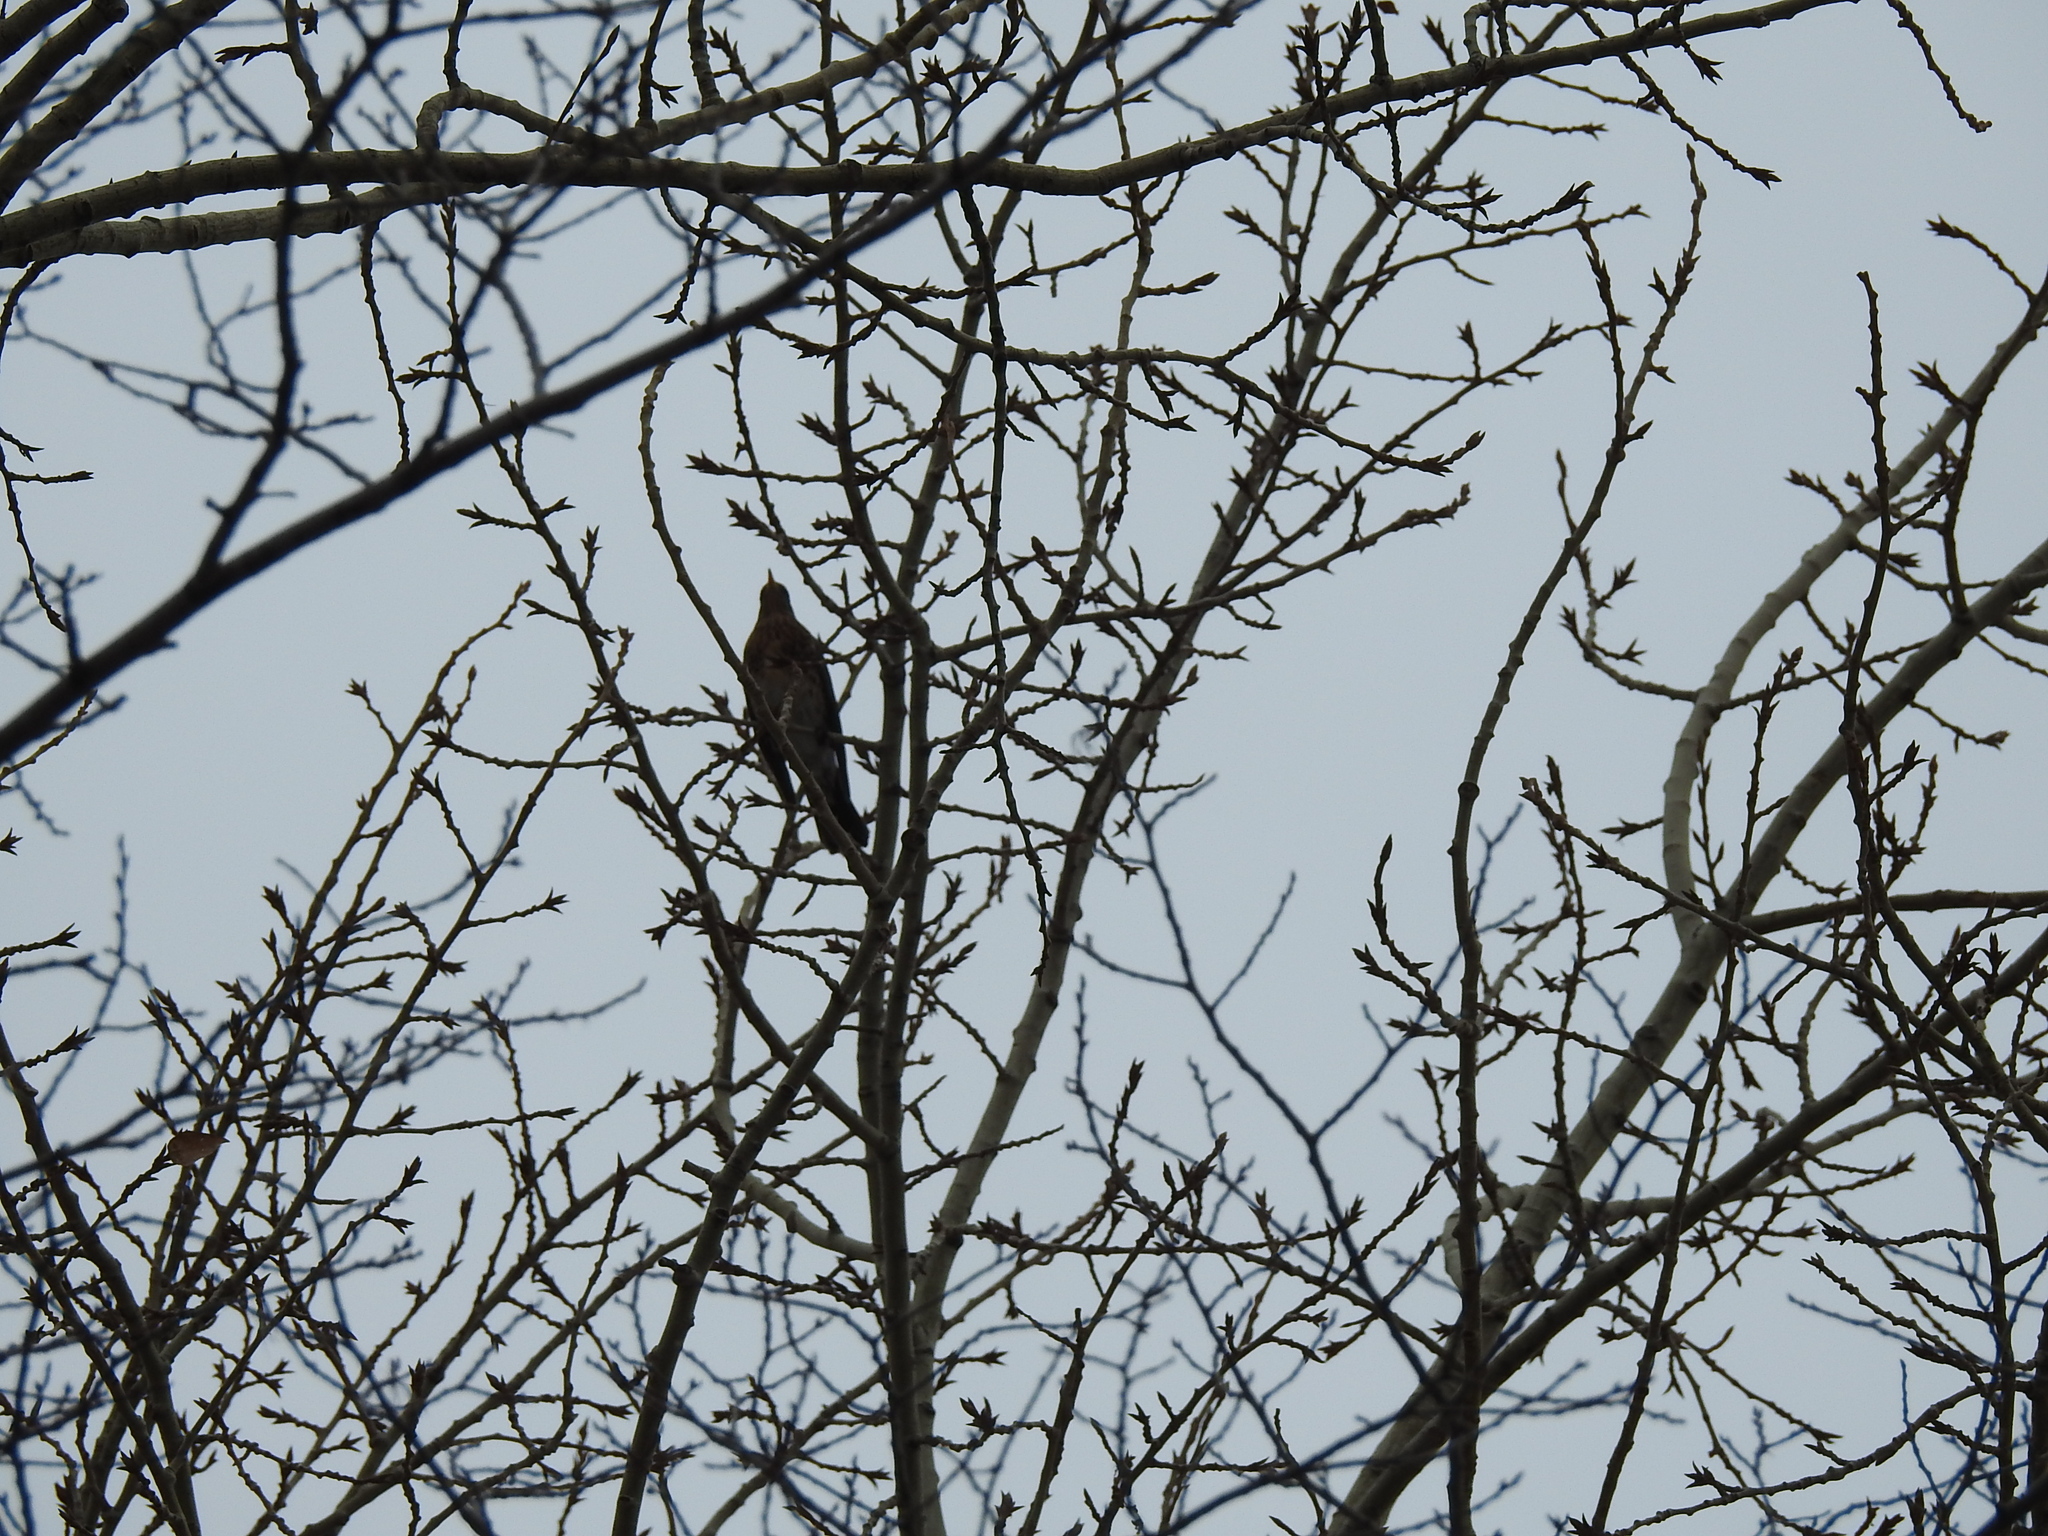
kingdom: Animalia
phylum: Chordata
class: Aves
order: Passeriformes
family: Turdidae
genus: Turdus
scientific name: Turdus pilaris
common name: Fieldfare
